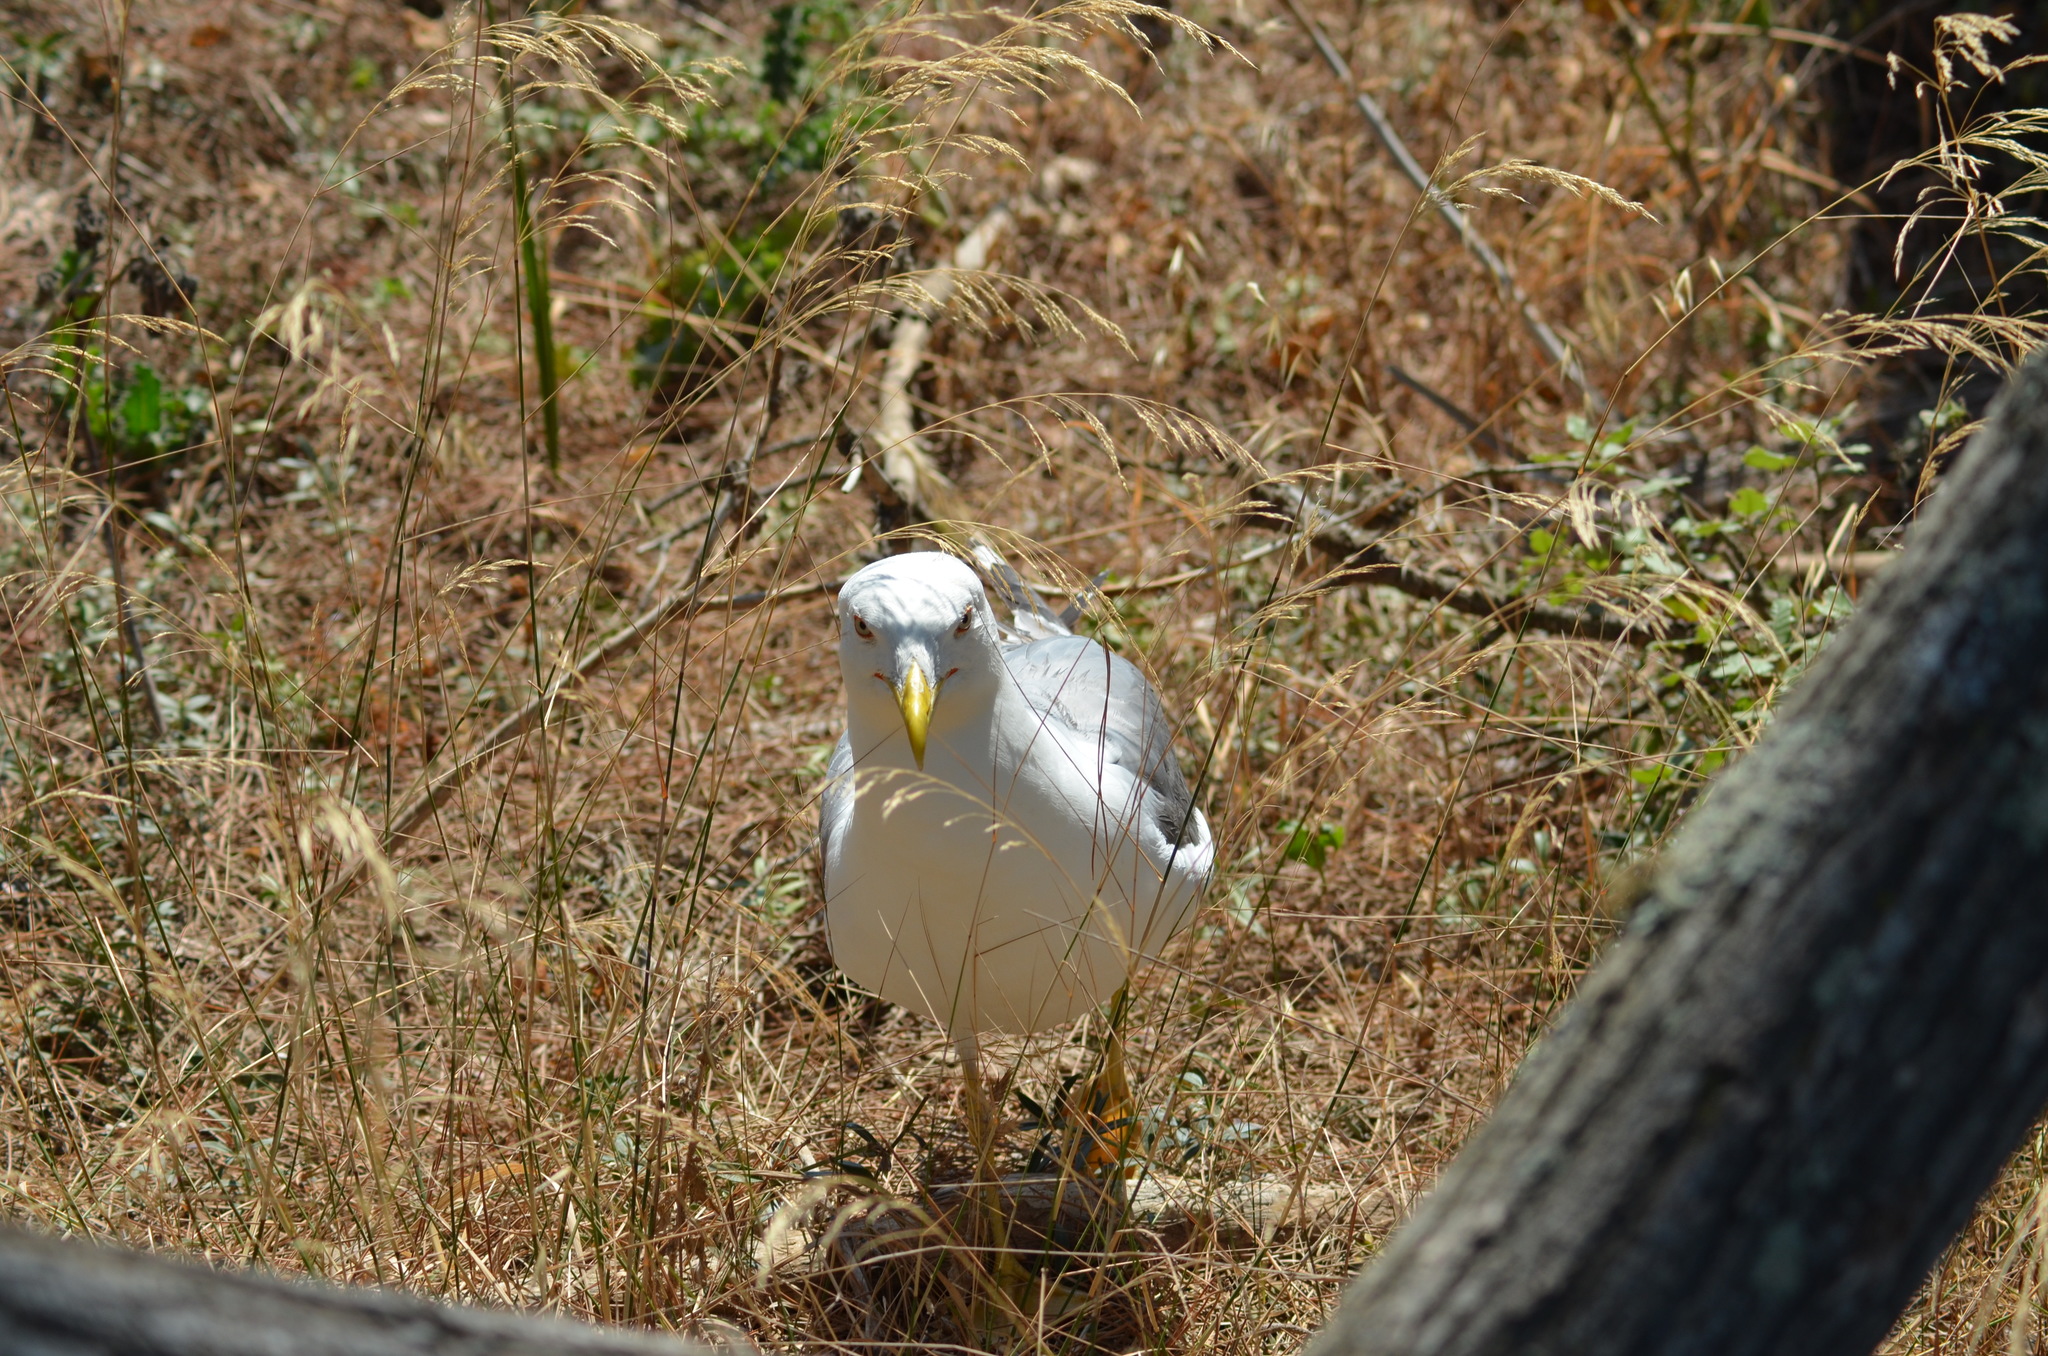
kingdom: Animalia
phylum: Chordata
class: Aves
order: Charadriiformes
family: Laridae
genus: Larus
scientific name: Larus michahellis
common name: Yellow-legged gull
